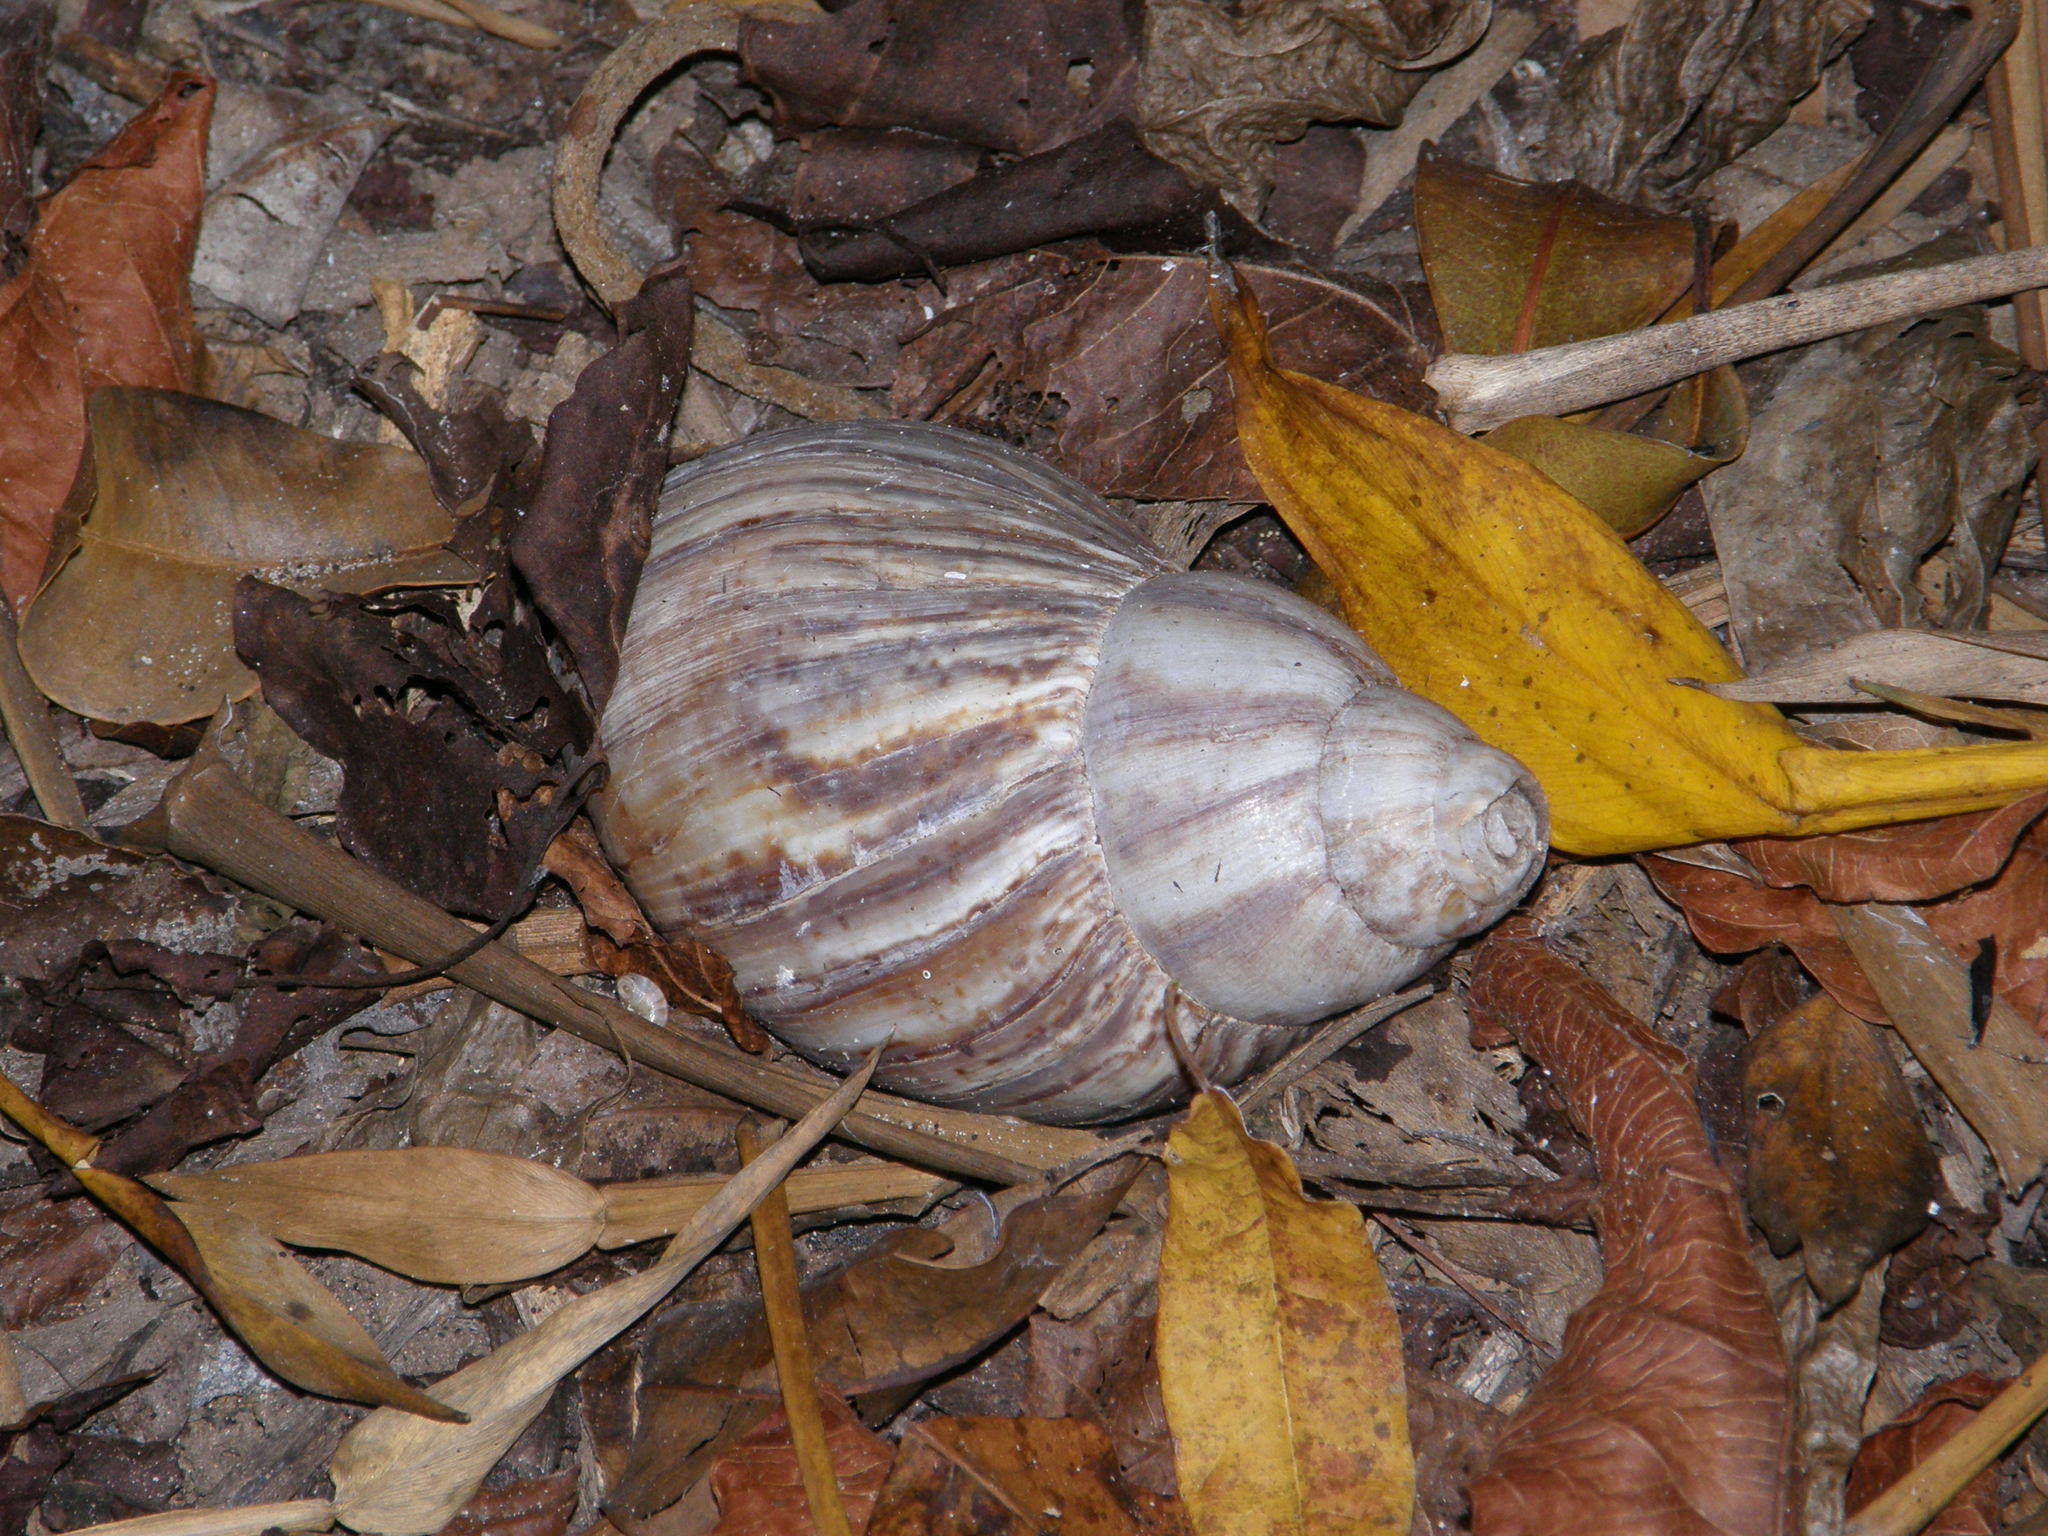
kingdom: Animalia
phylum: Mollusca
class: Gastropoda
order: Stylommatophora
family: Achatinidae
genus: Lissachatina
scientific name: Lissachatina fulica
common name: Giant african snail
